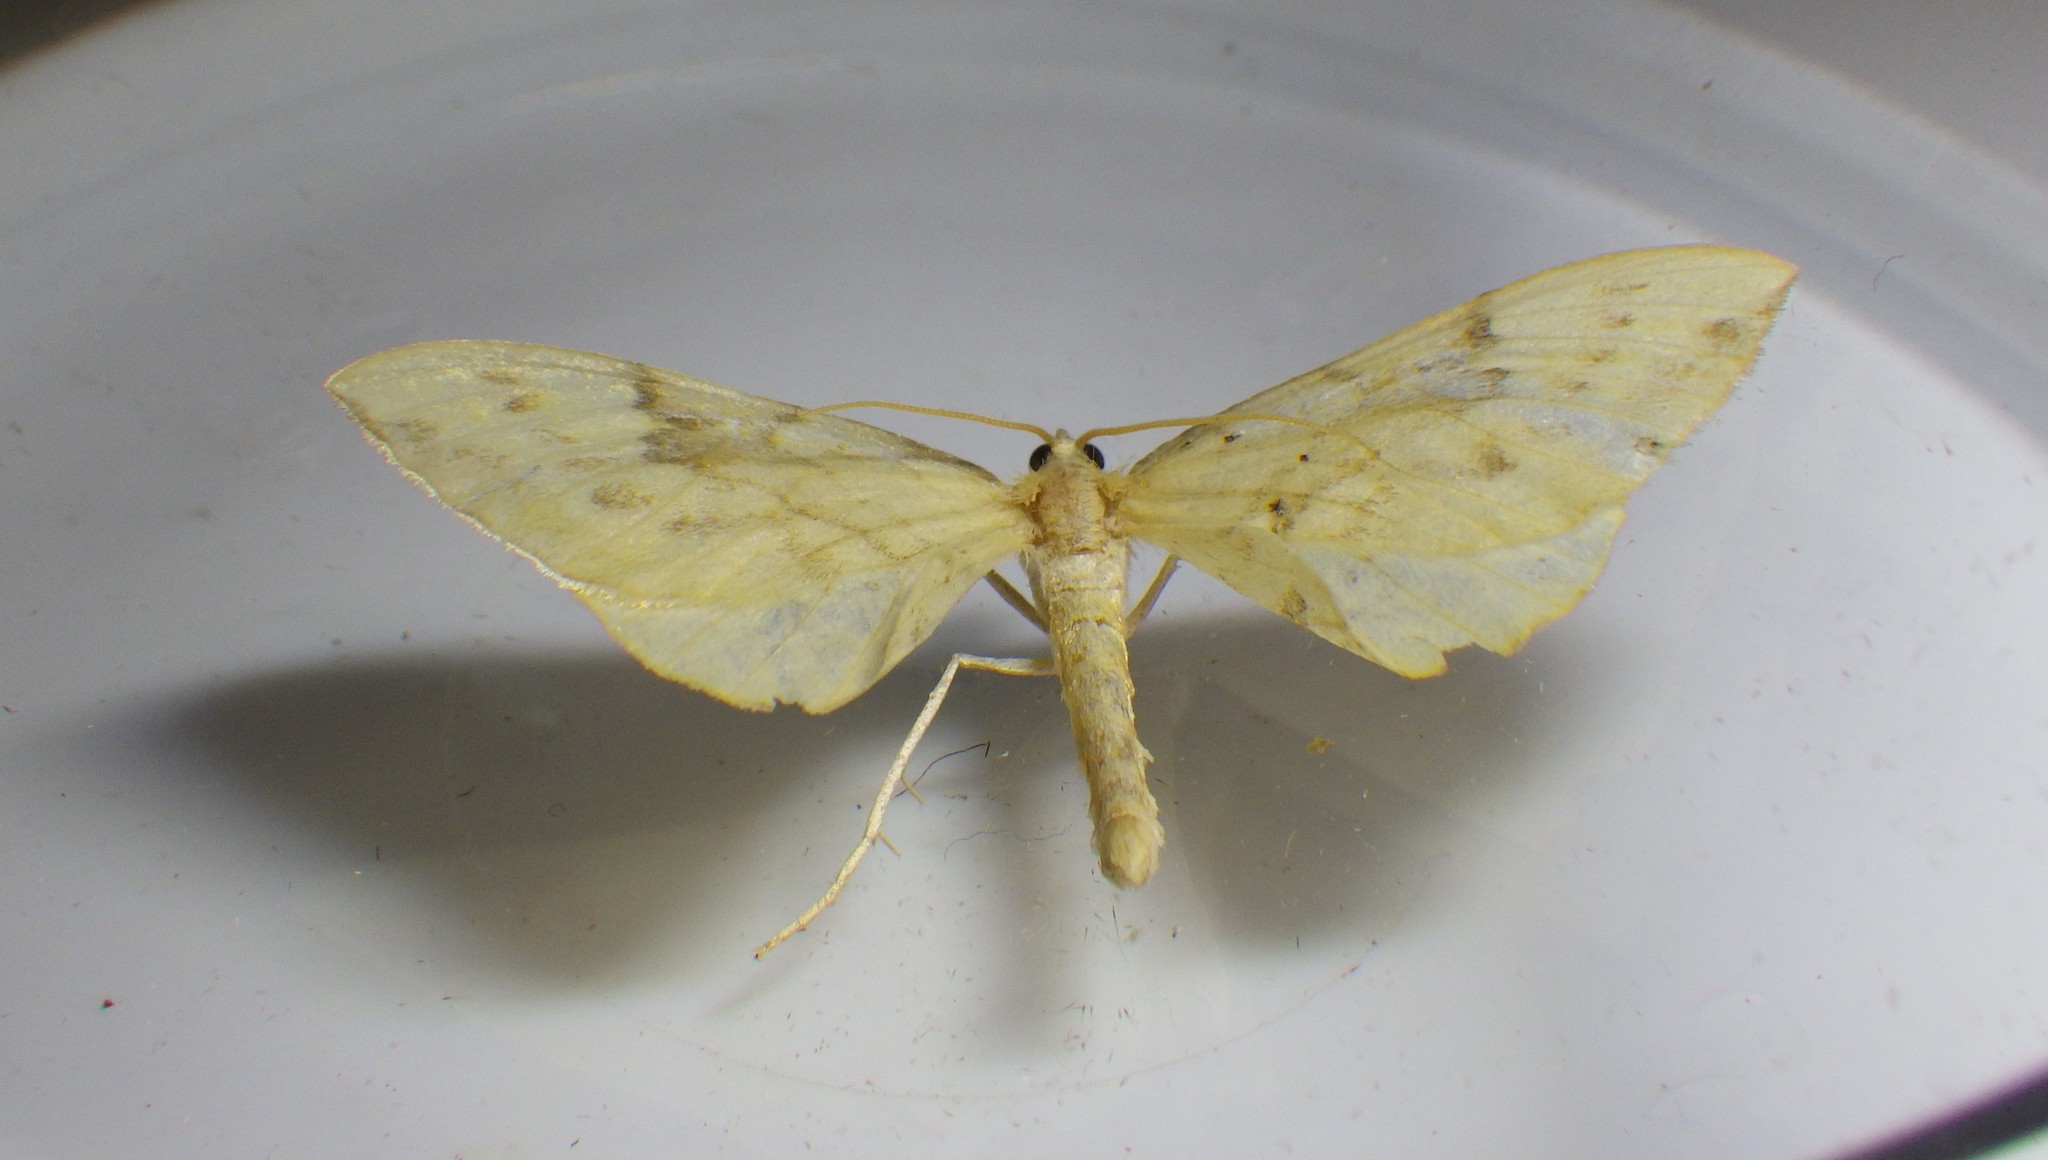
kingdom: Animalia
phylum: Arthropoda
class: Insecta
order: Lepidoptera
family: Geometridae
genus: Eulithis
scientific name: Eulithis pyraliata
